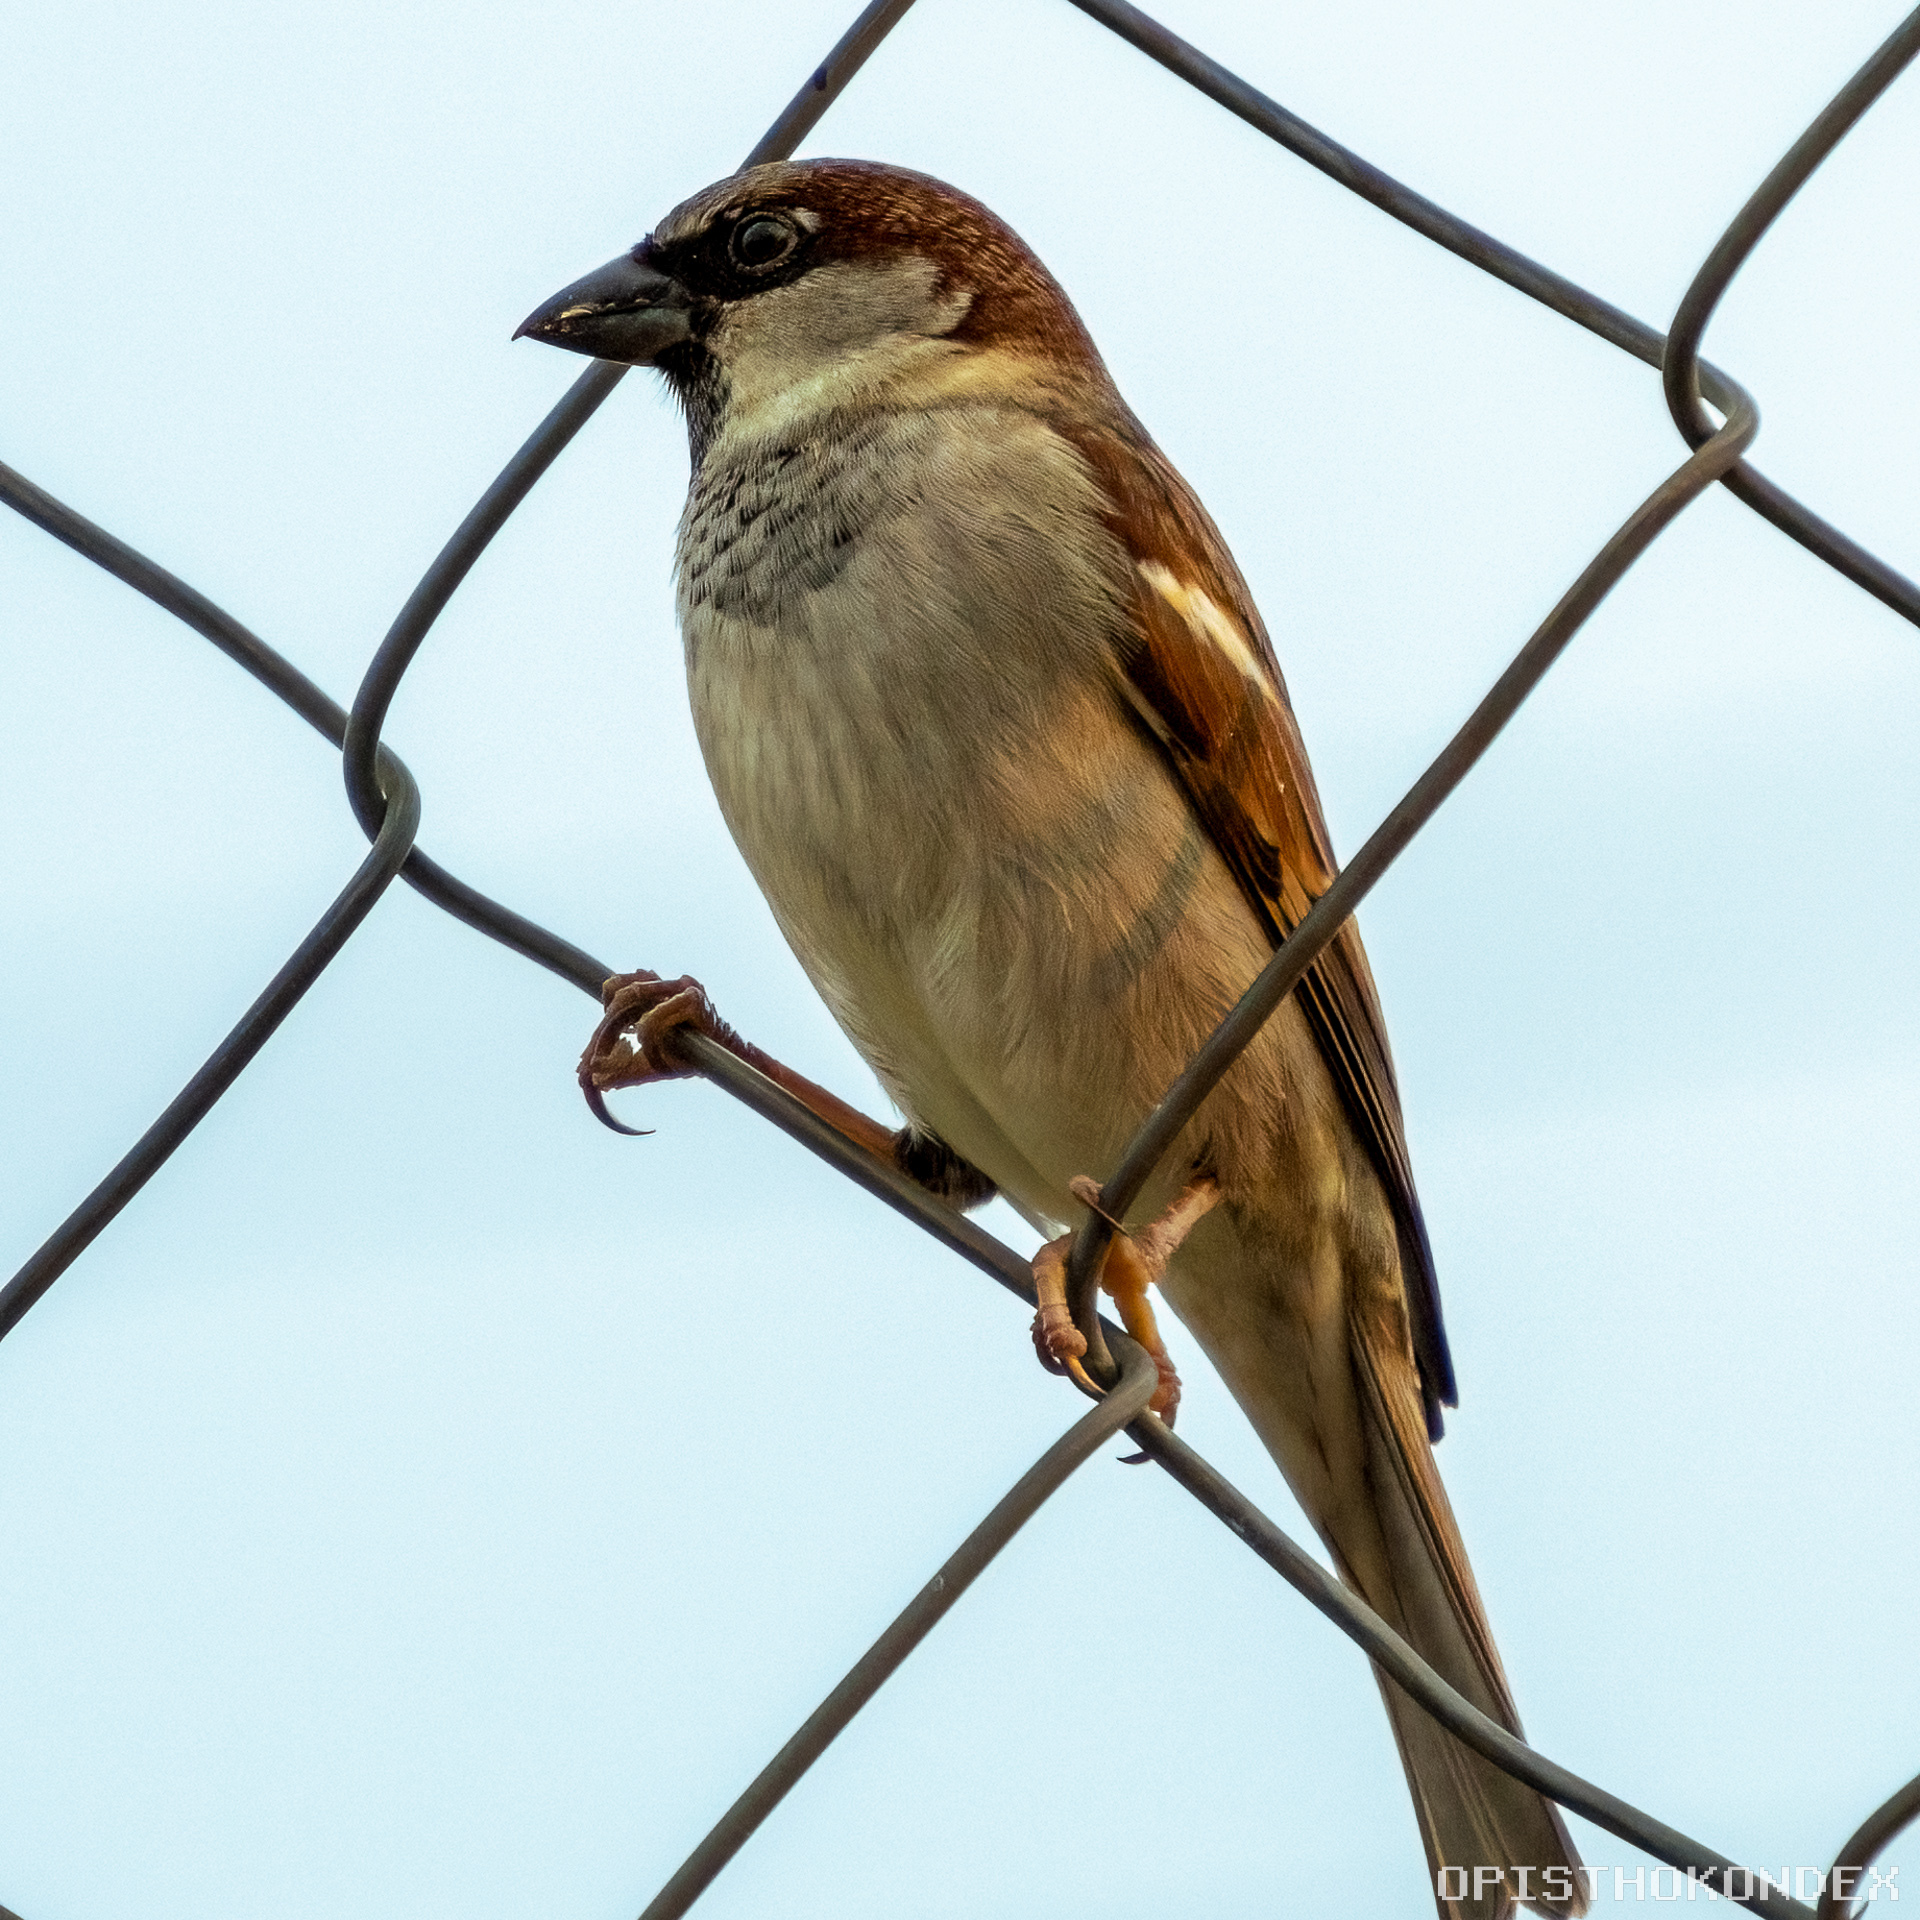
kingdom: Animalia
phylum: Chordata
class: Aves
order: Passeriformes
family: Passeridae
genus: Passer
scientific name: Passer domesticus
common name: House sparrow
